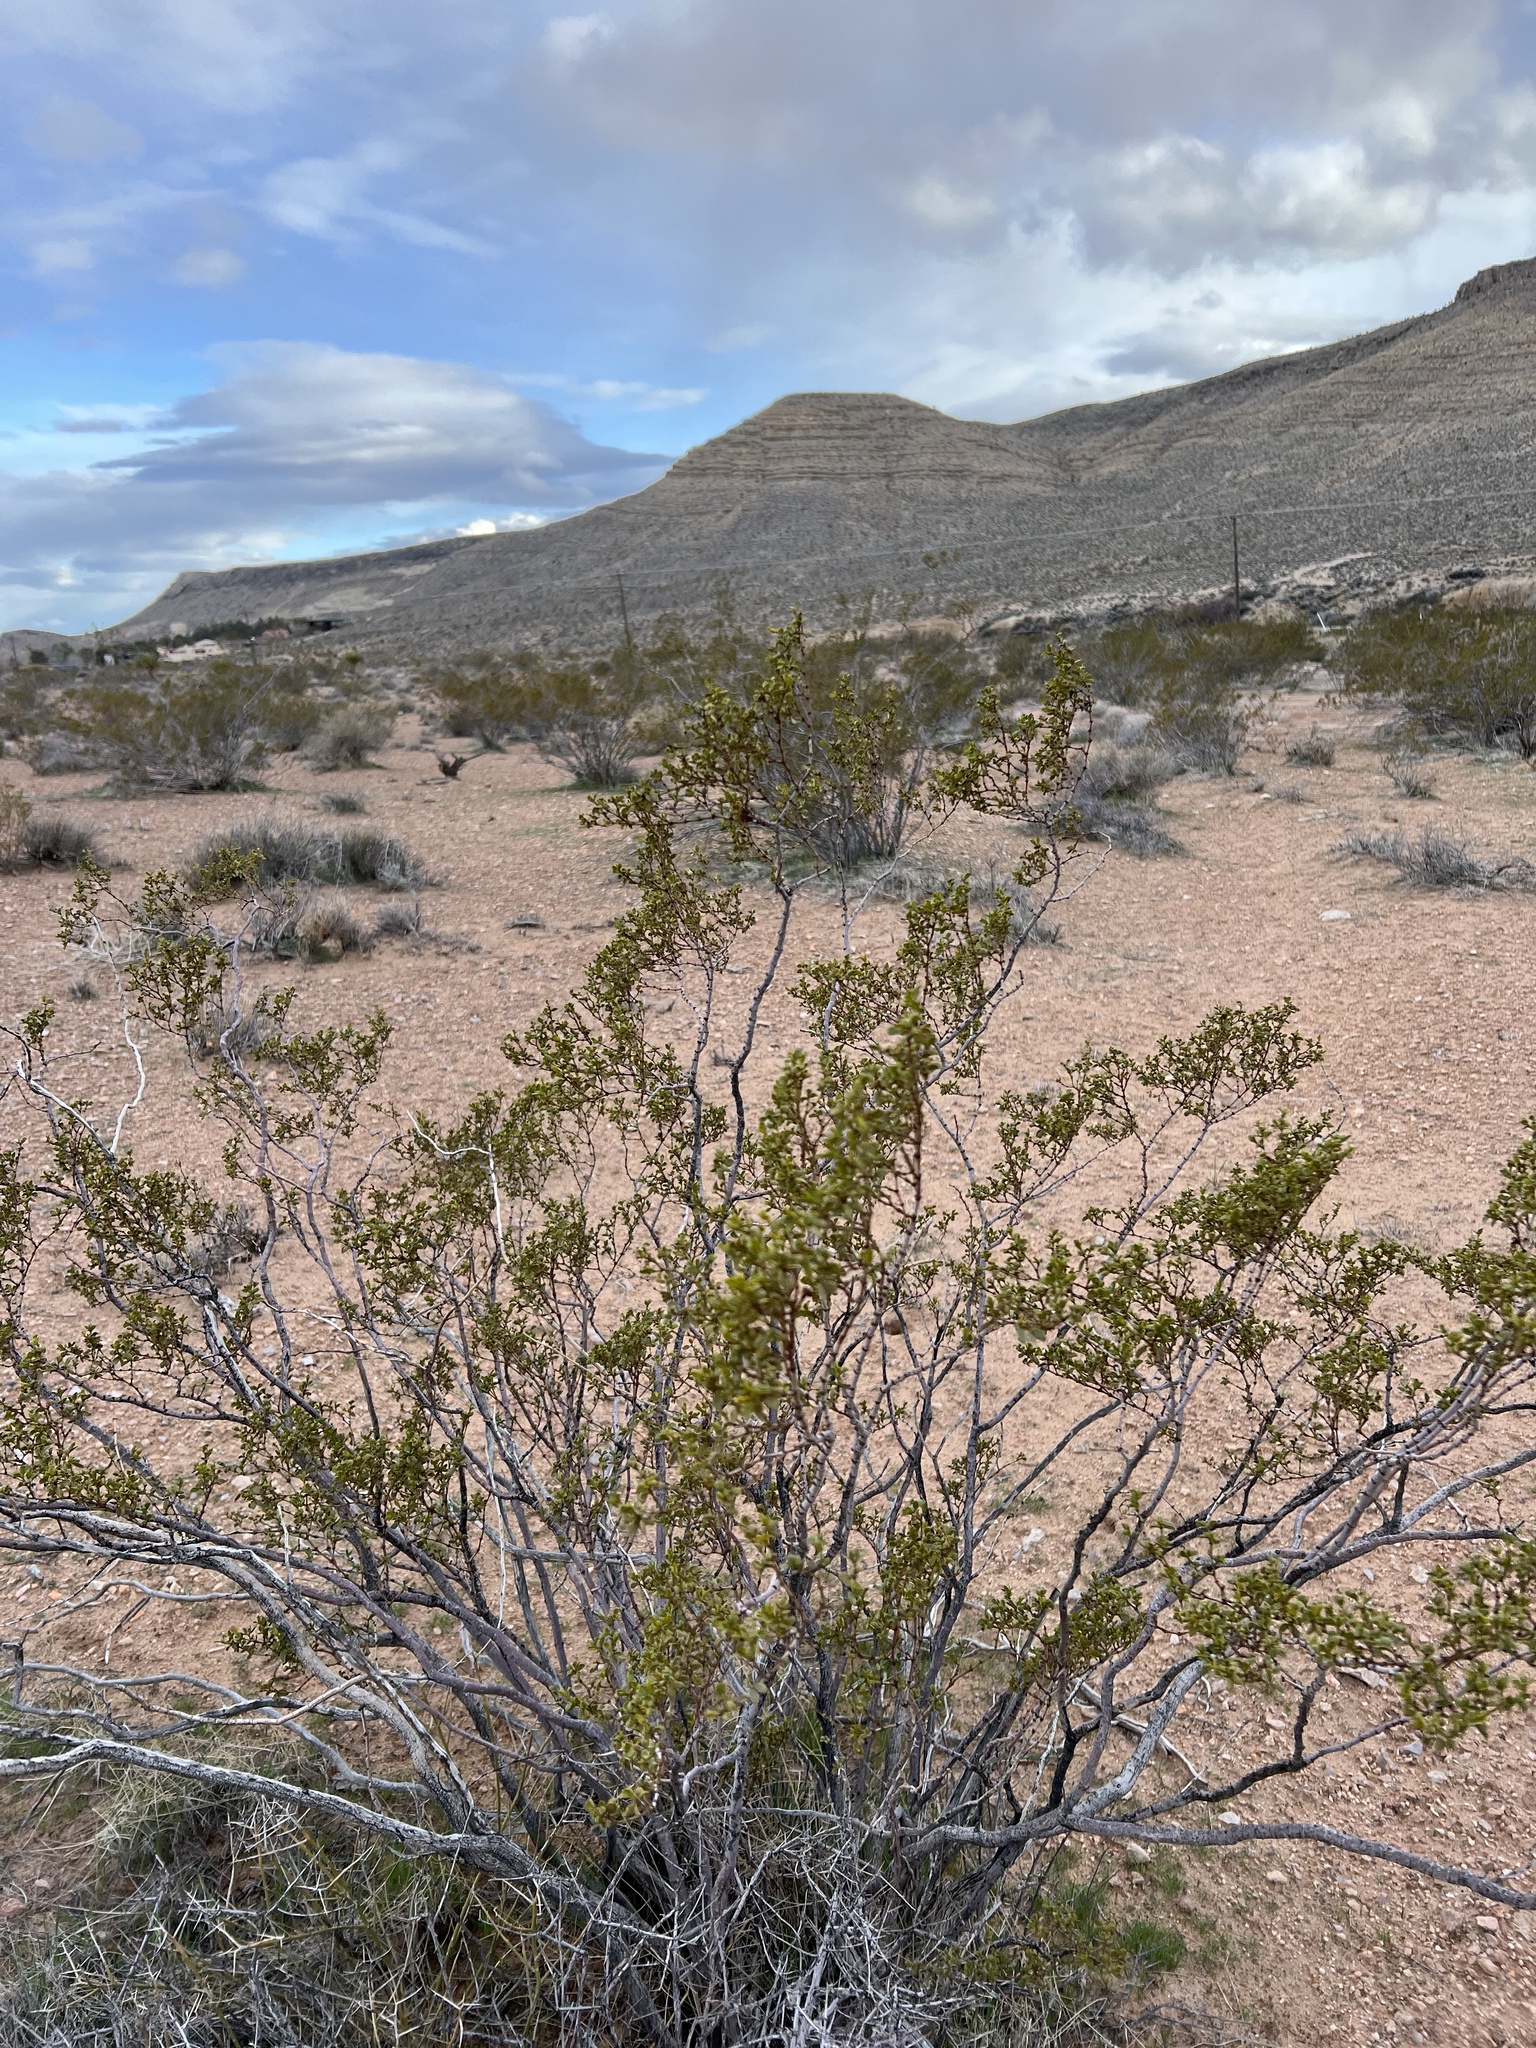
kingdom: Plantae
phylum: Tracheophyta
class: Magnoliopsida
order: Zygophyllales
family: Zygophyllaceae
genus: Larrea
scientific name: Larrea tridentata
